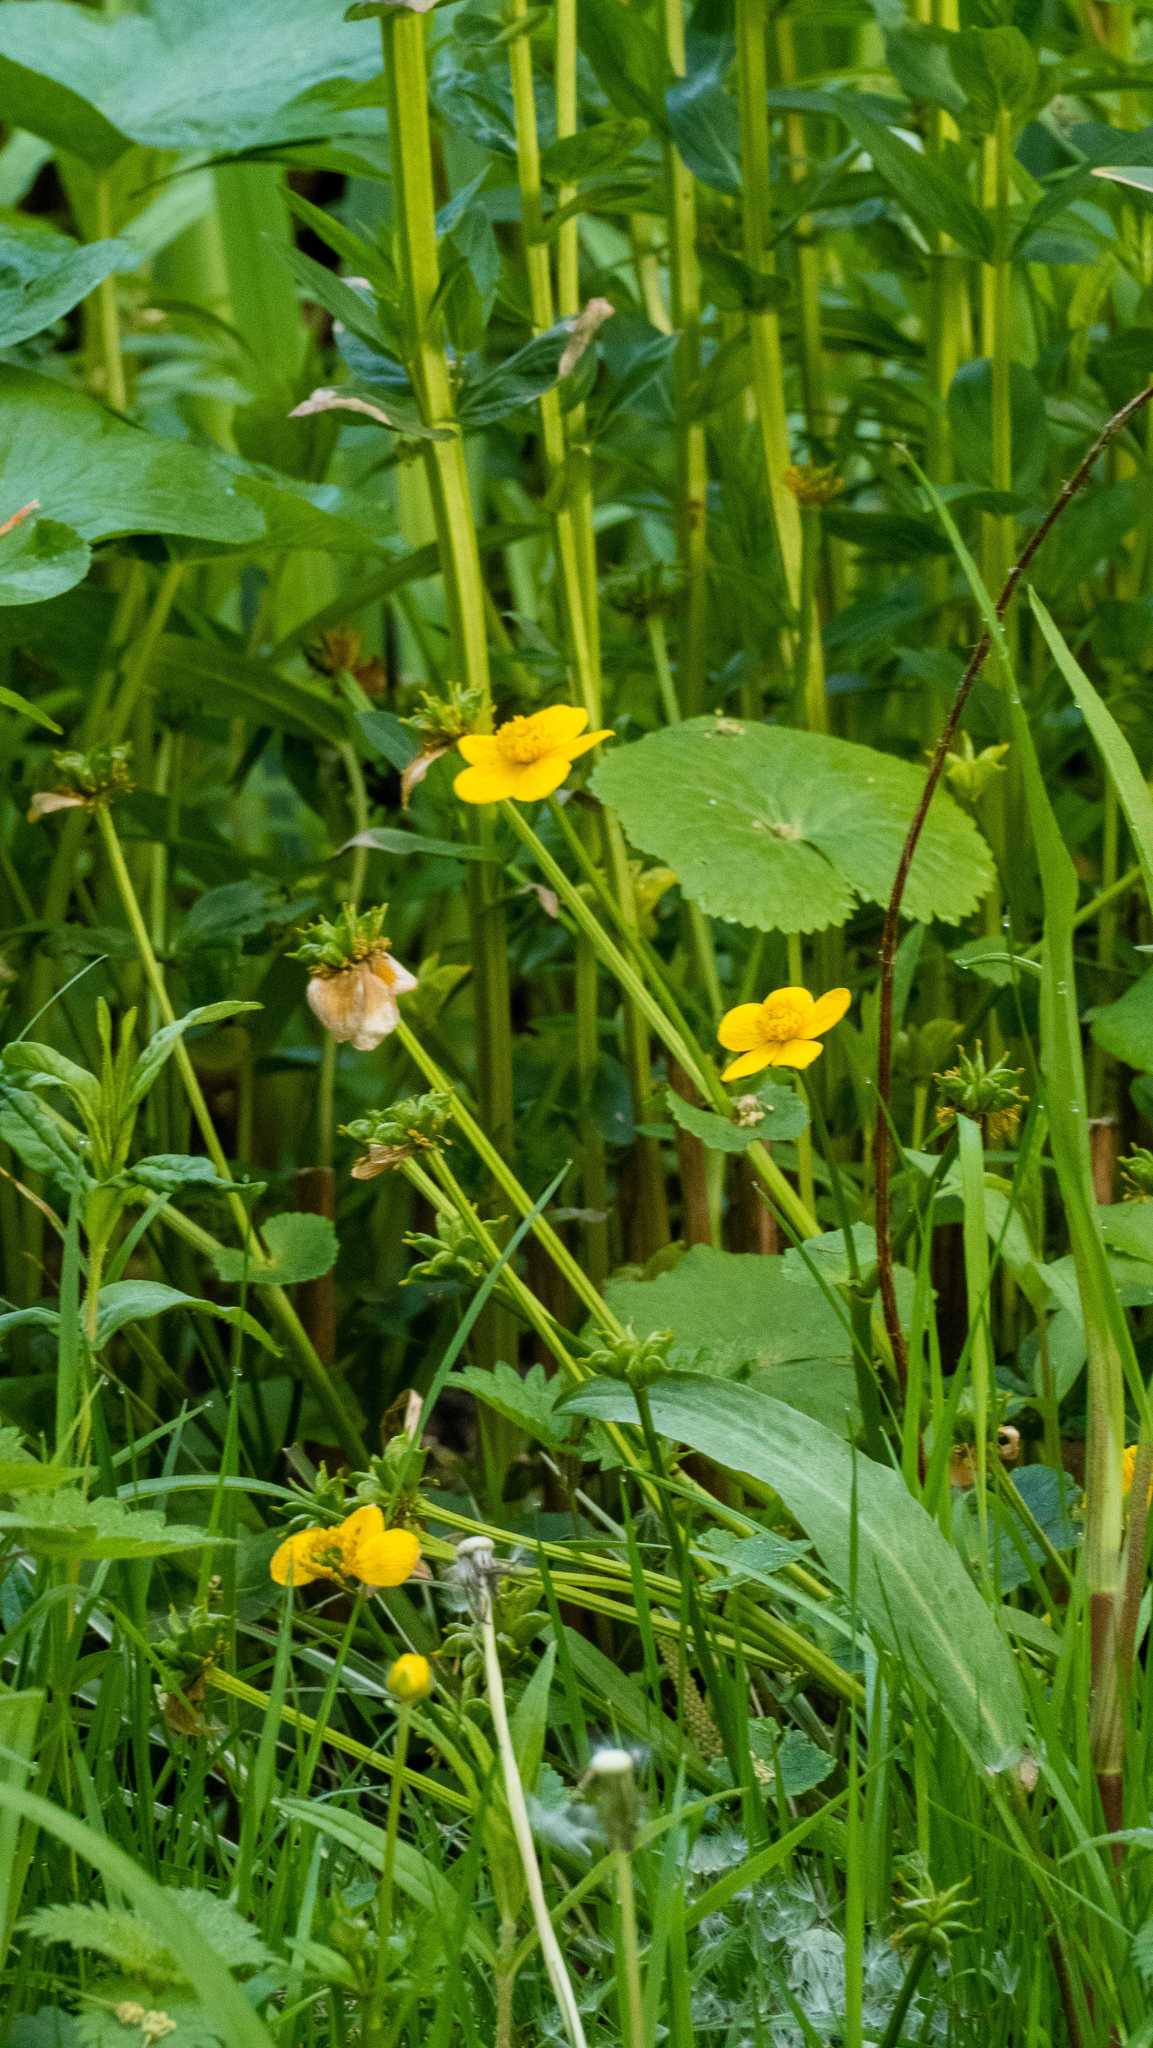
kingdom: Plantae
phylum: Tracheophyta
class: Magnoliopsida
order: Ranunculales
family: Ranunculaceae
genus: Caltha
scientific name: Caltha palustris
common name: Marsh marigold
